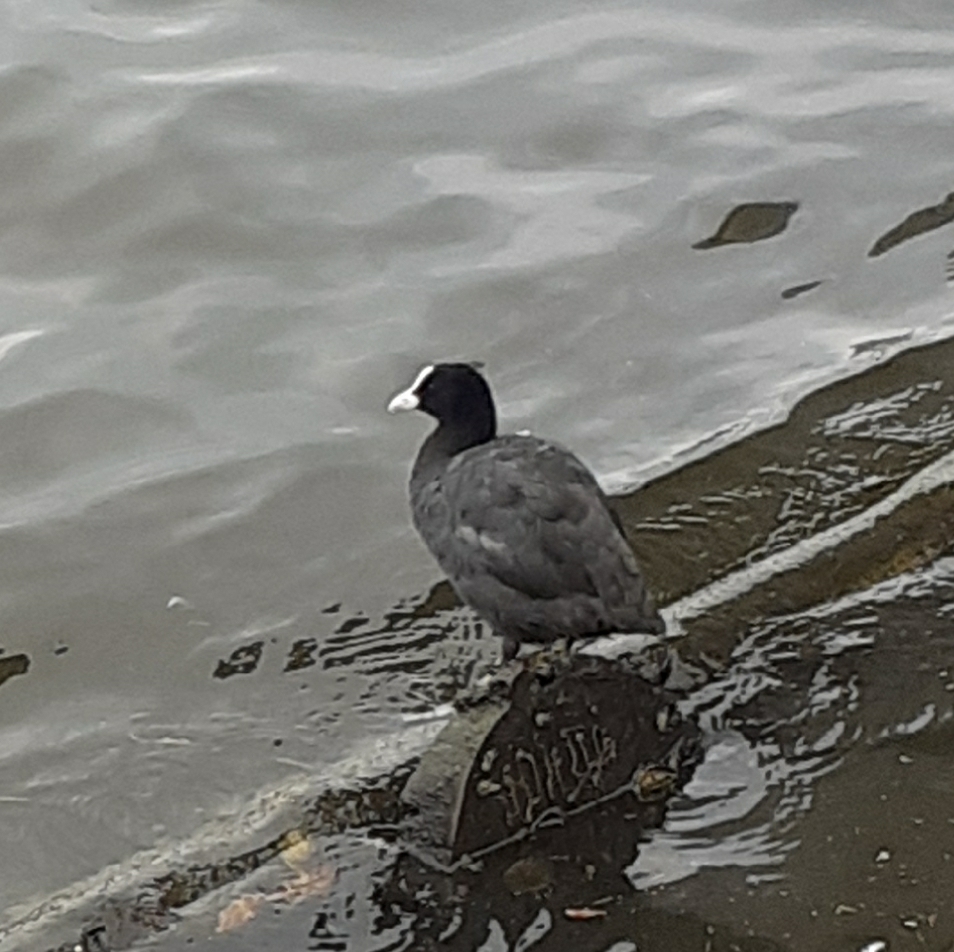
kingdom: Animalia
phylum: Chordata
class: Aves
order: Gruiformes
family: Rallidae
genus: Fulica
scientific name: Fulica atra
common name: Eurasian coot
